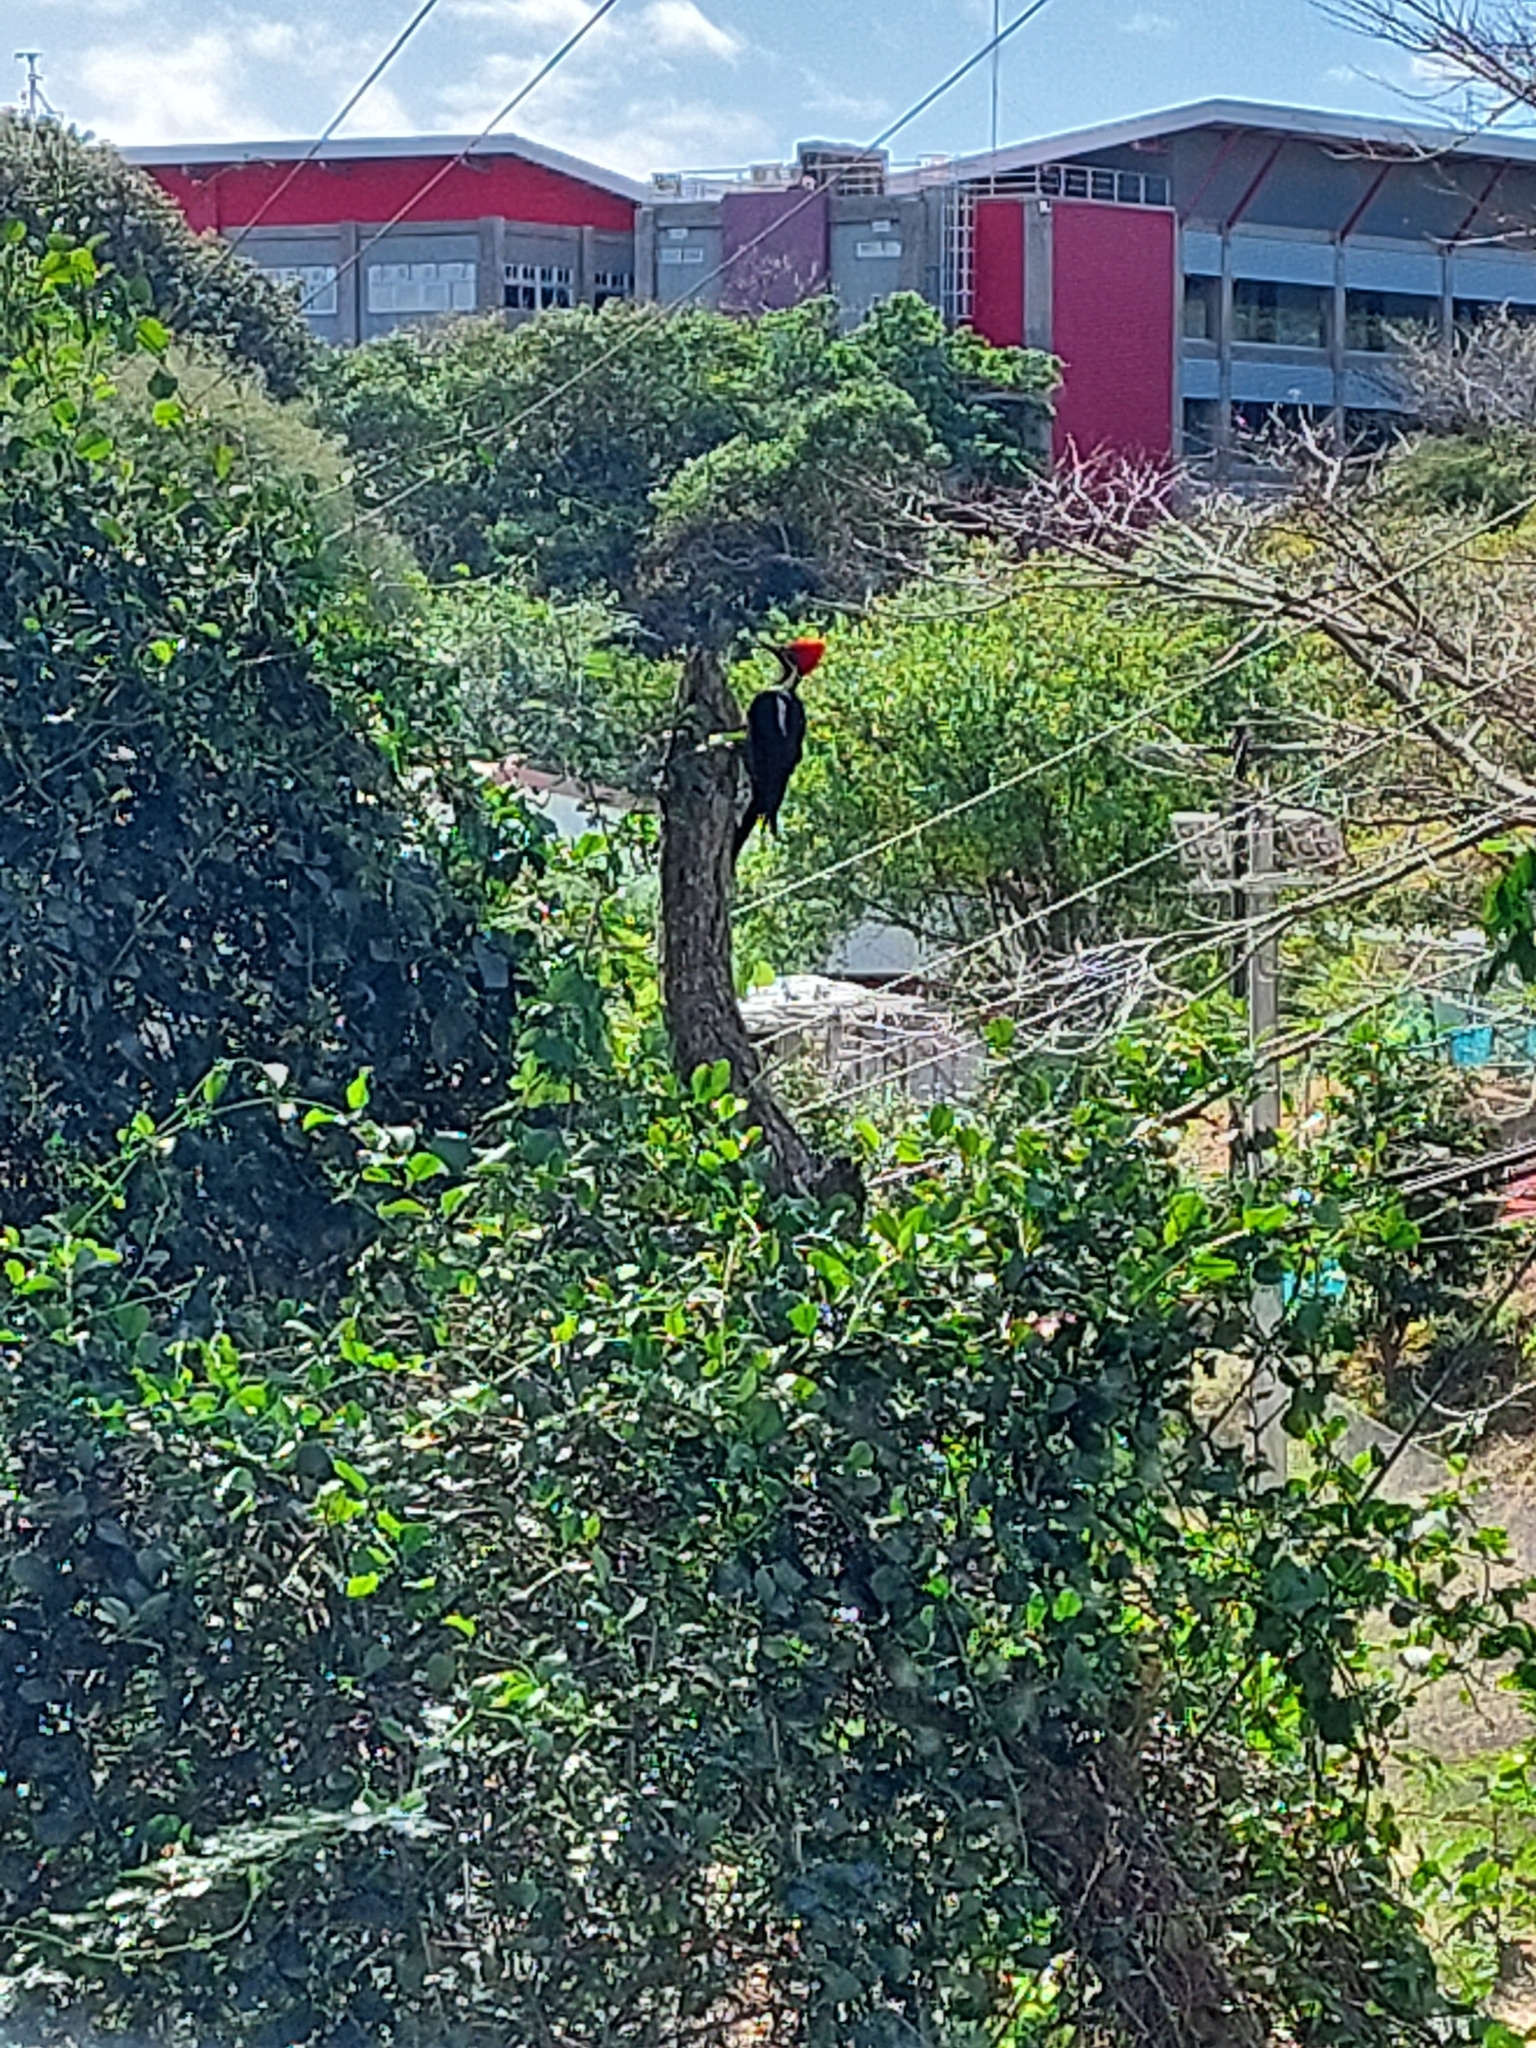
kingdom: Animalia
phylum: Chordata
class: Aves
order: Piciformes
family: Picidae
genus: Dryocopus
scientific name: Dryocopus lineatus
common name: Lineated woodpecker
